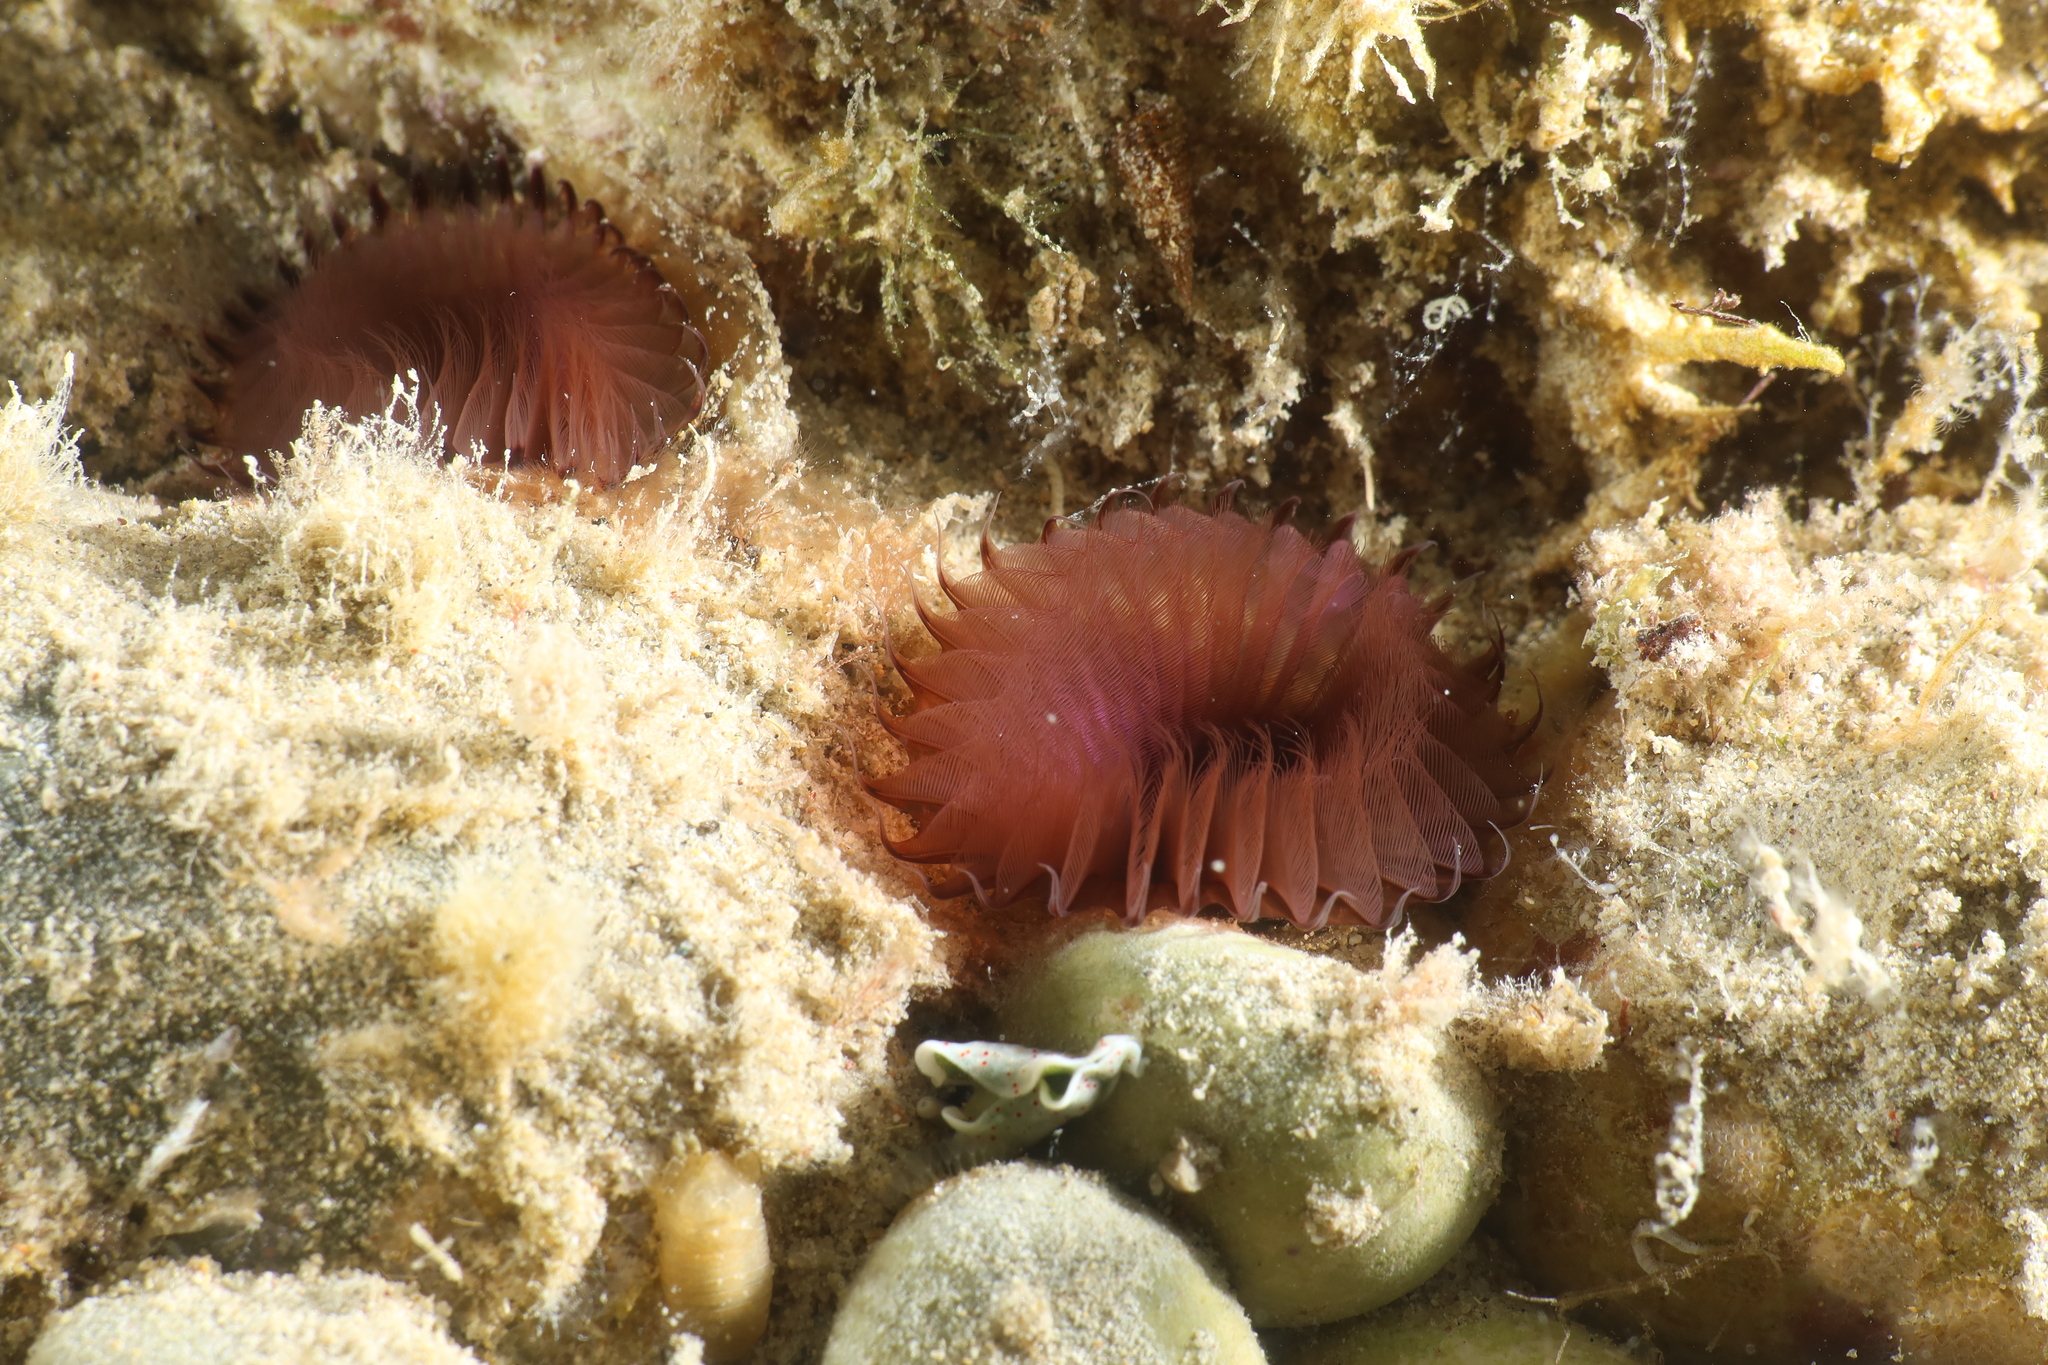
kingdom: Animalia
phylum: Annelida
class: Polychaeta
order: Sabellida
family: Sabellidae
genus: Myxicola
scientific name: Myxicola infundibulum
